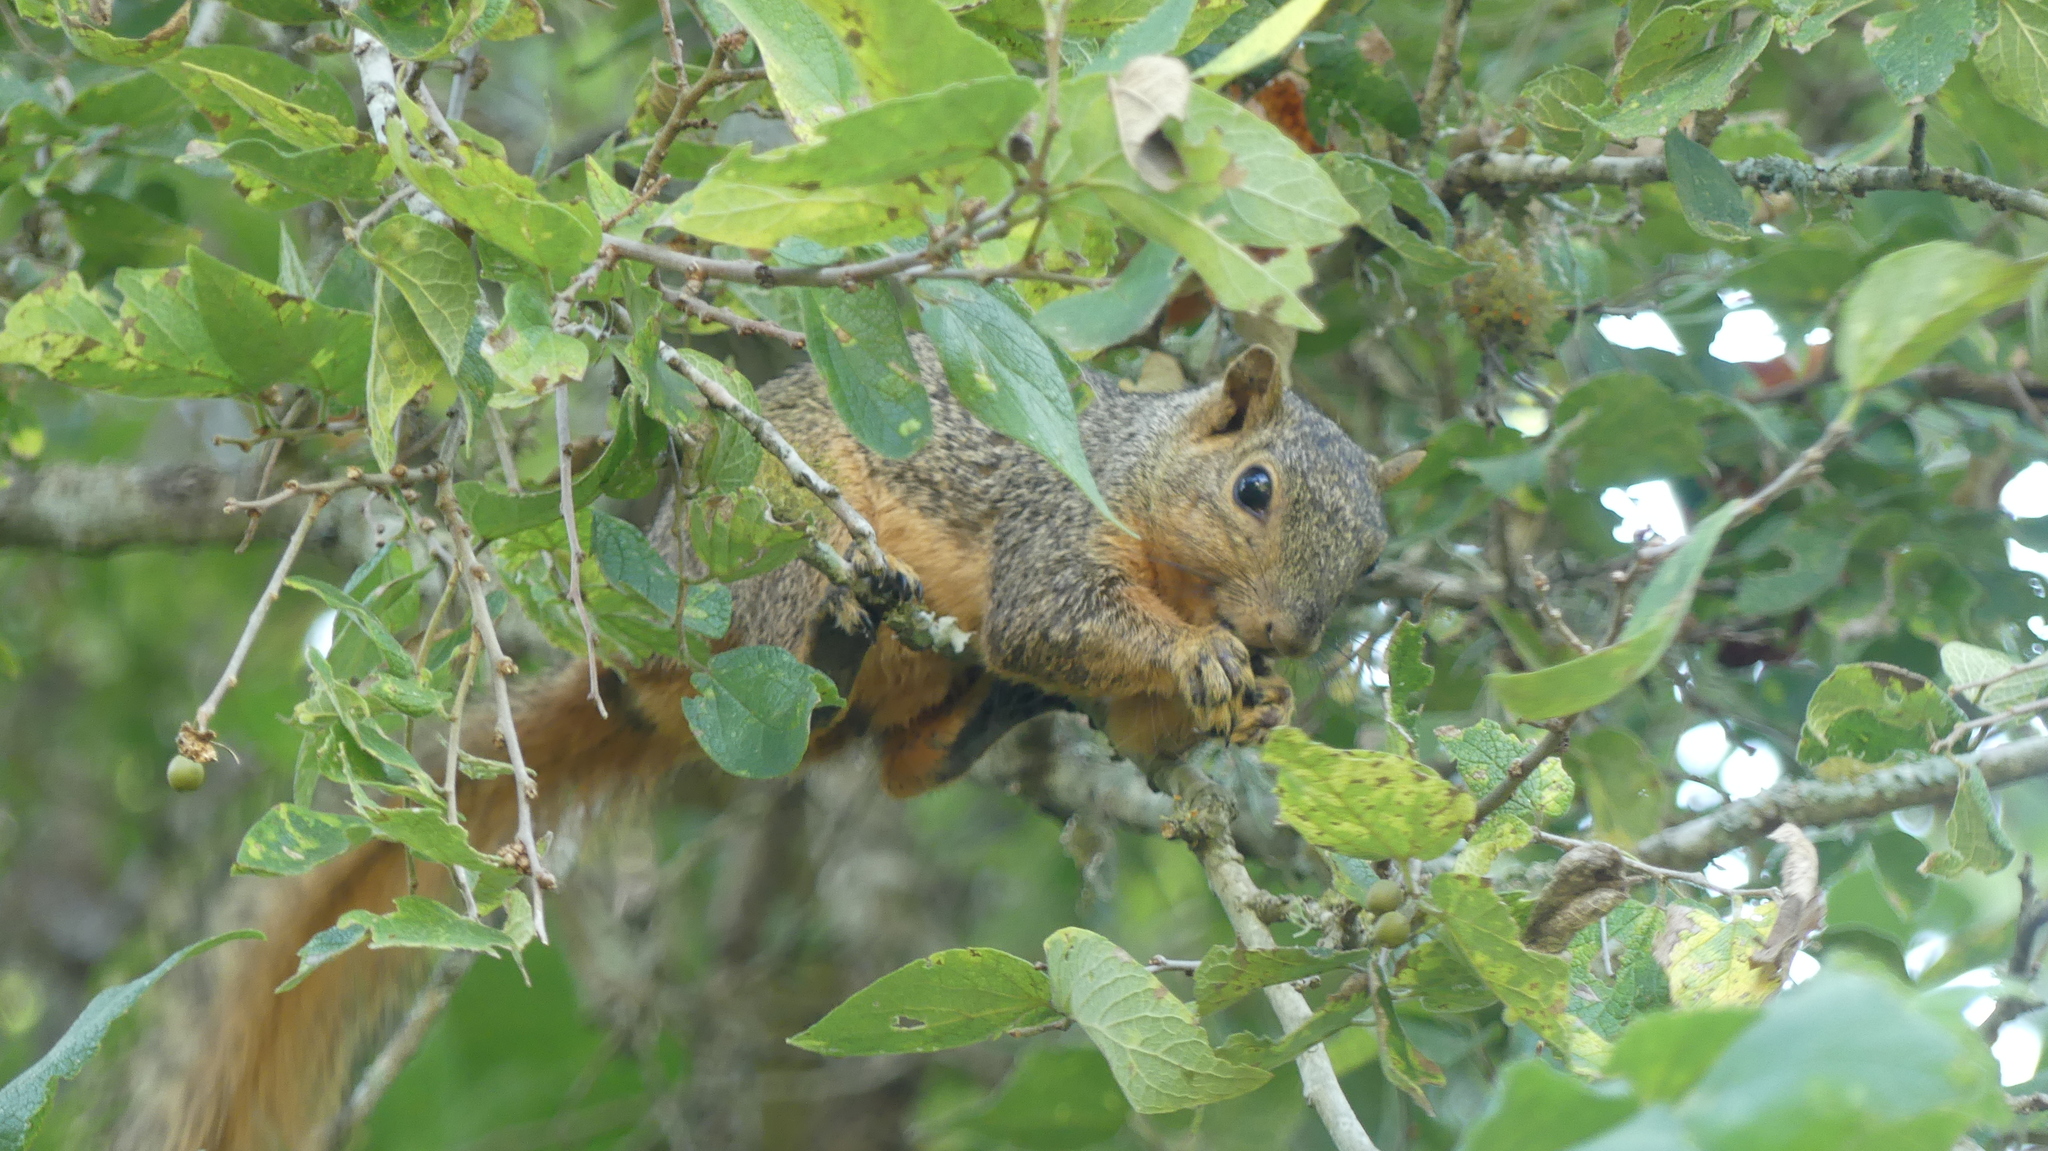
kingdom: Animalia
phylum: Chordata
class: Mammalia
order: Rodentia
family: Sciuridae
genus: Sciurus
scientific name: Sciurus niger
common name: Fox squirrel
